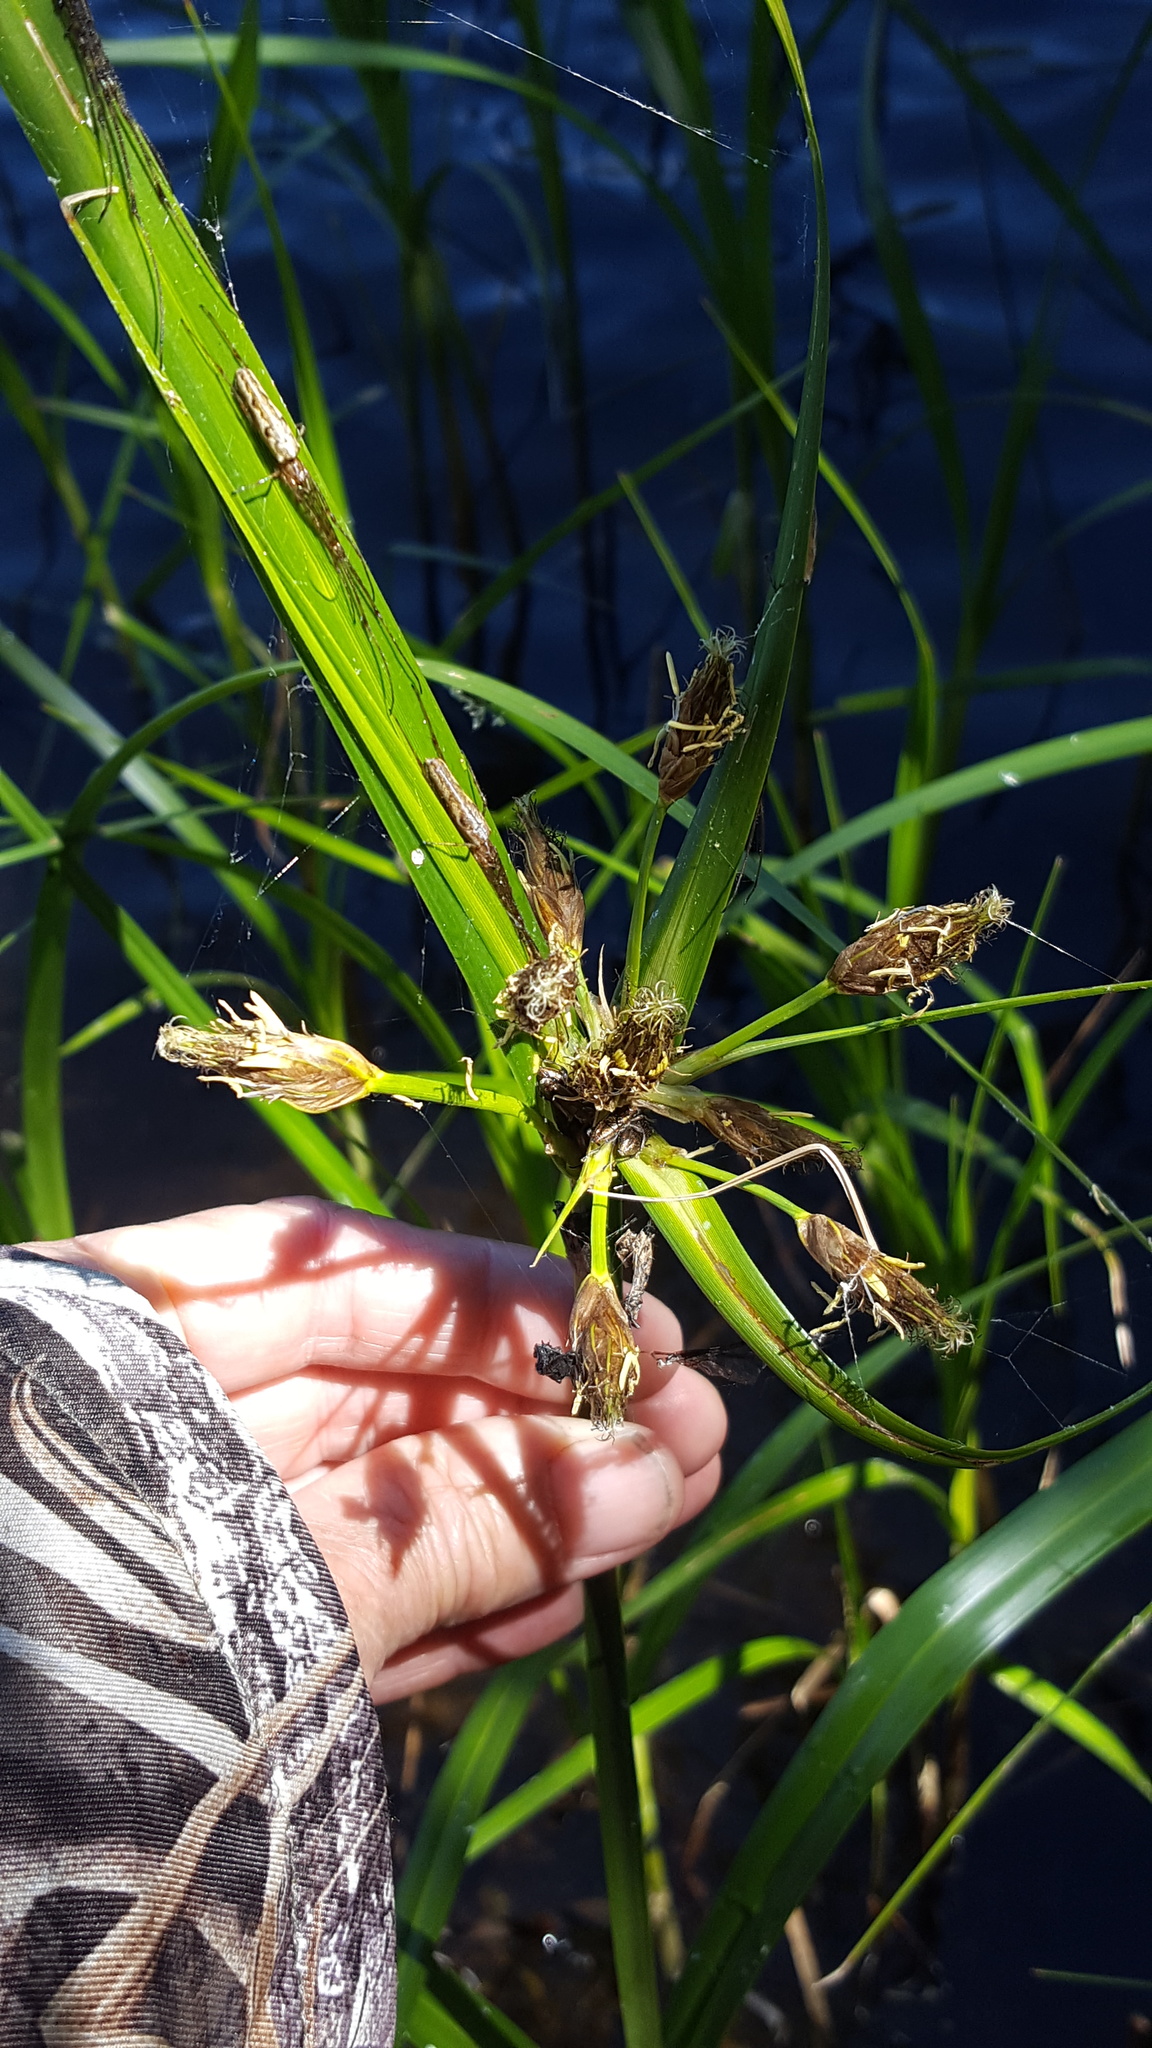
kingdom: Plantae
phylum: Tracheophyta
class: Liliopsida
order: Poales
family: Cyperaceae
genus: Bolboschoenus
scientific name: Bolboschoenus fluviatilis
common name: River bulrush
